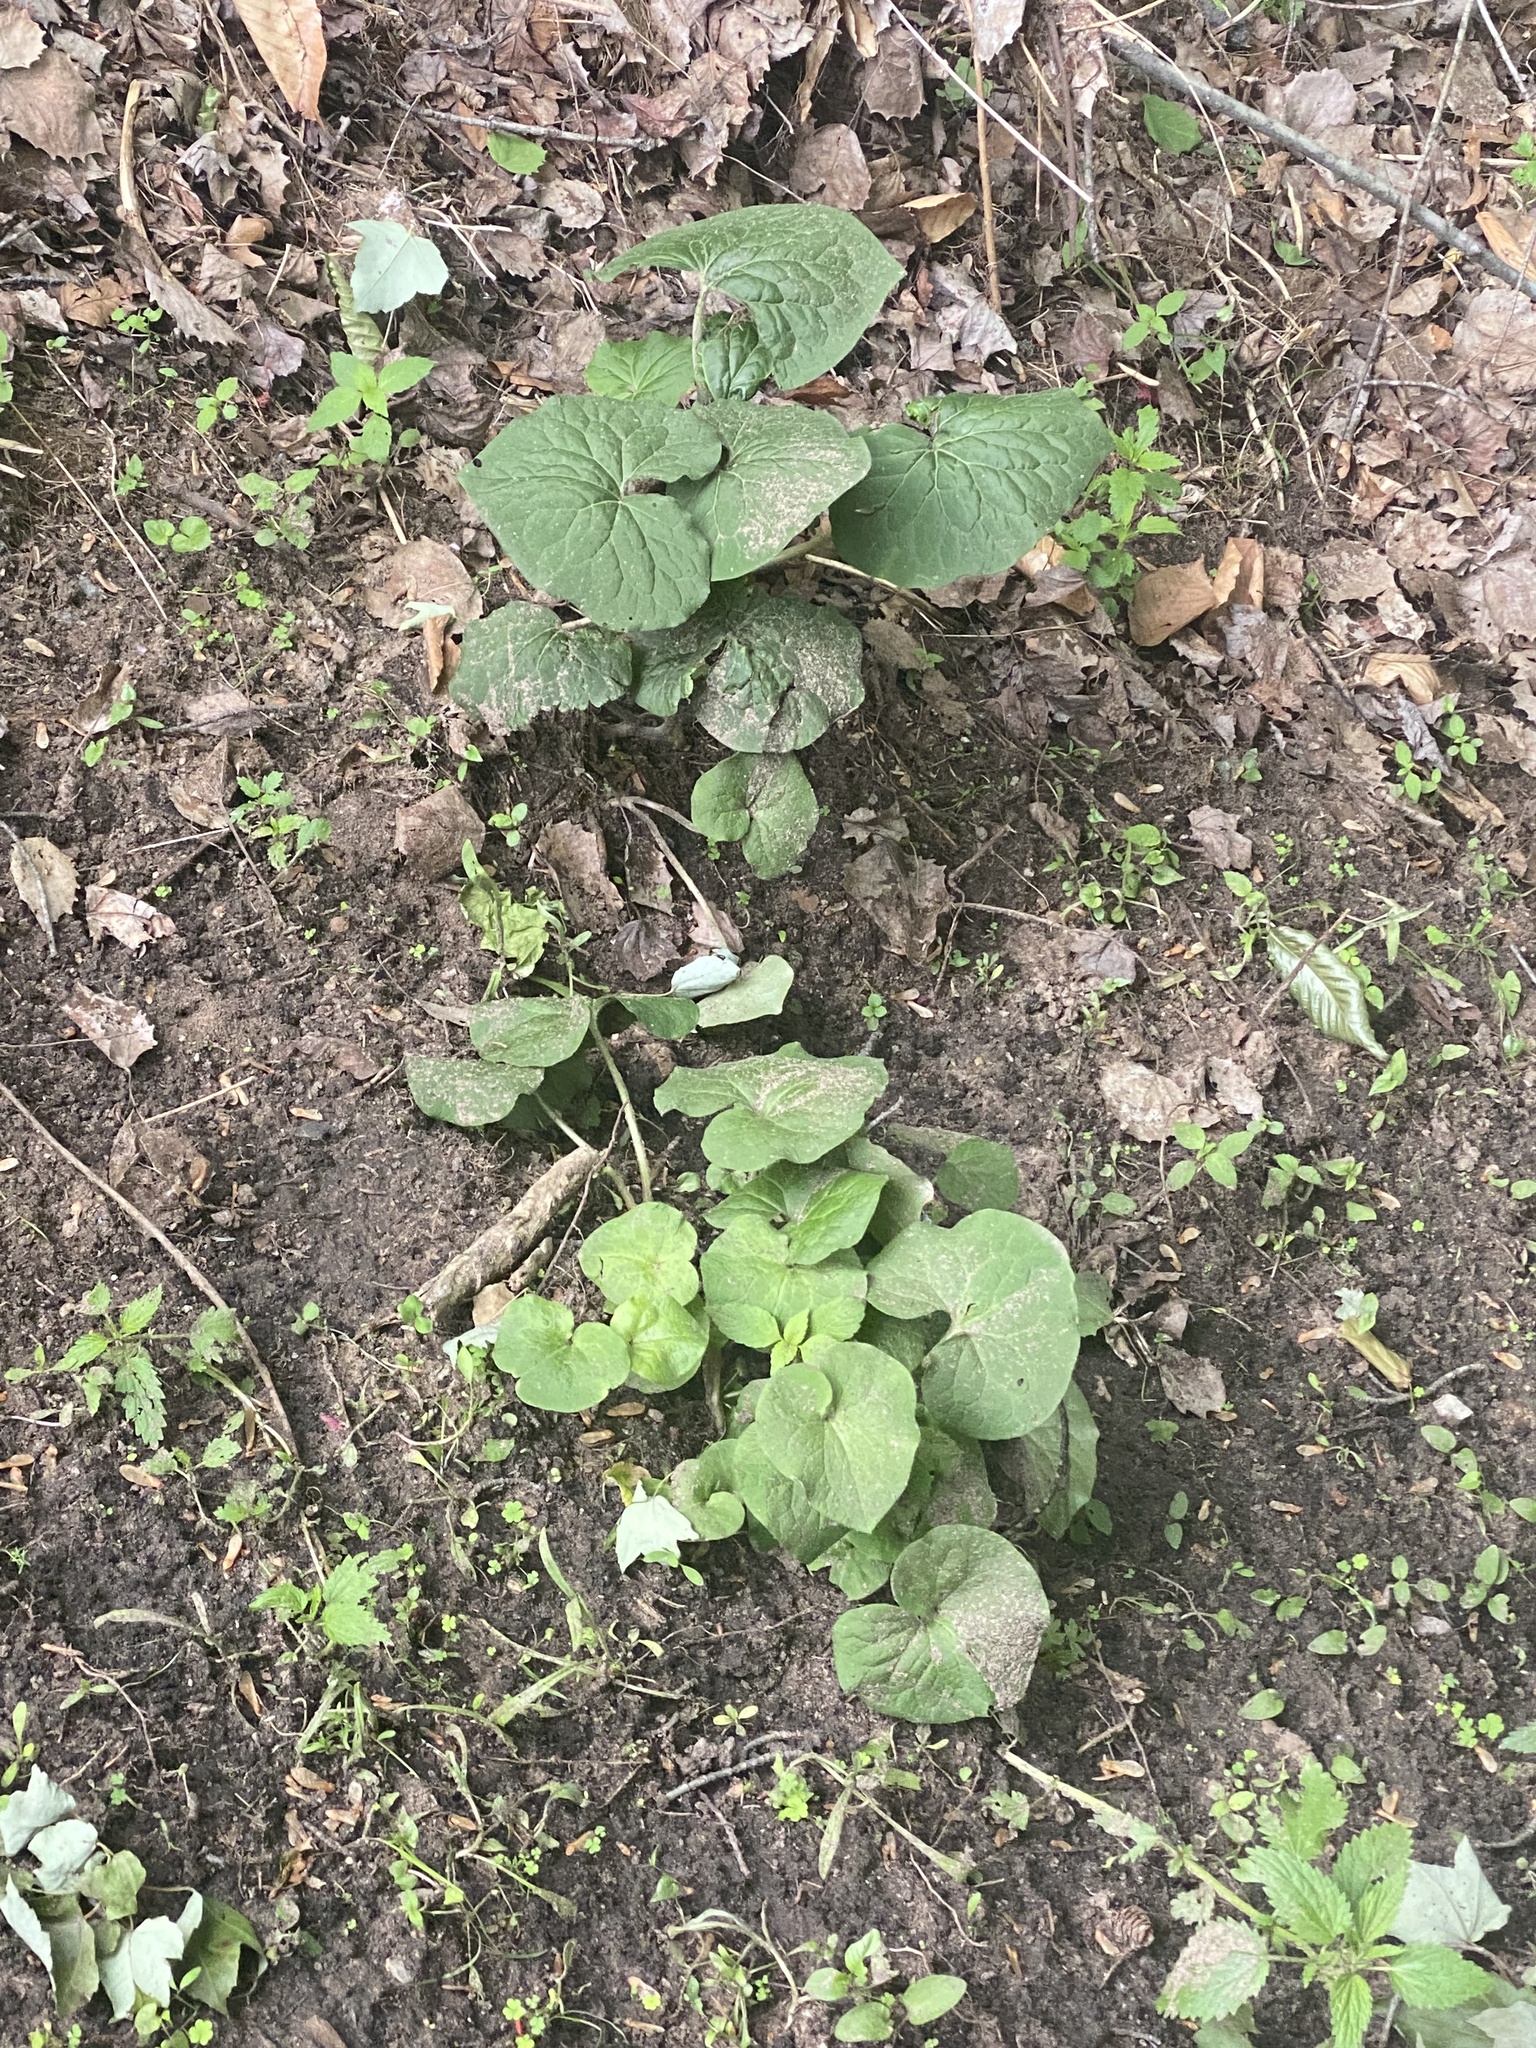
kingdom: Plantae
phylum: Tracheophyta
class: Magnoliopsida
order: Piperales
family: Aristolochiaceae
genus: Asarum
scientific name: Asarum canadense
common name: Wild ginger
